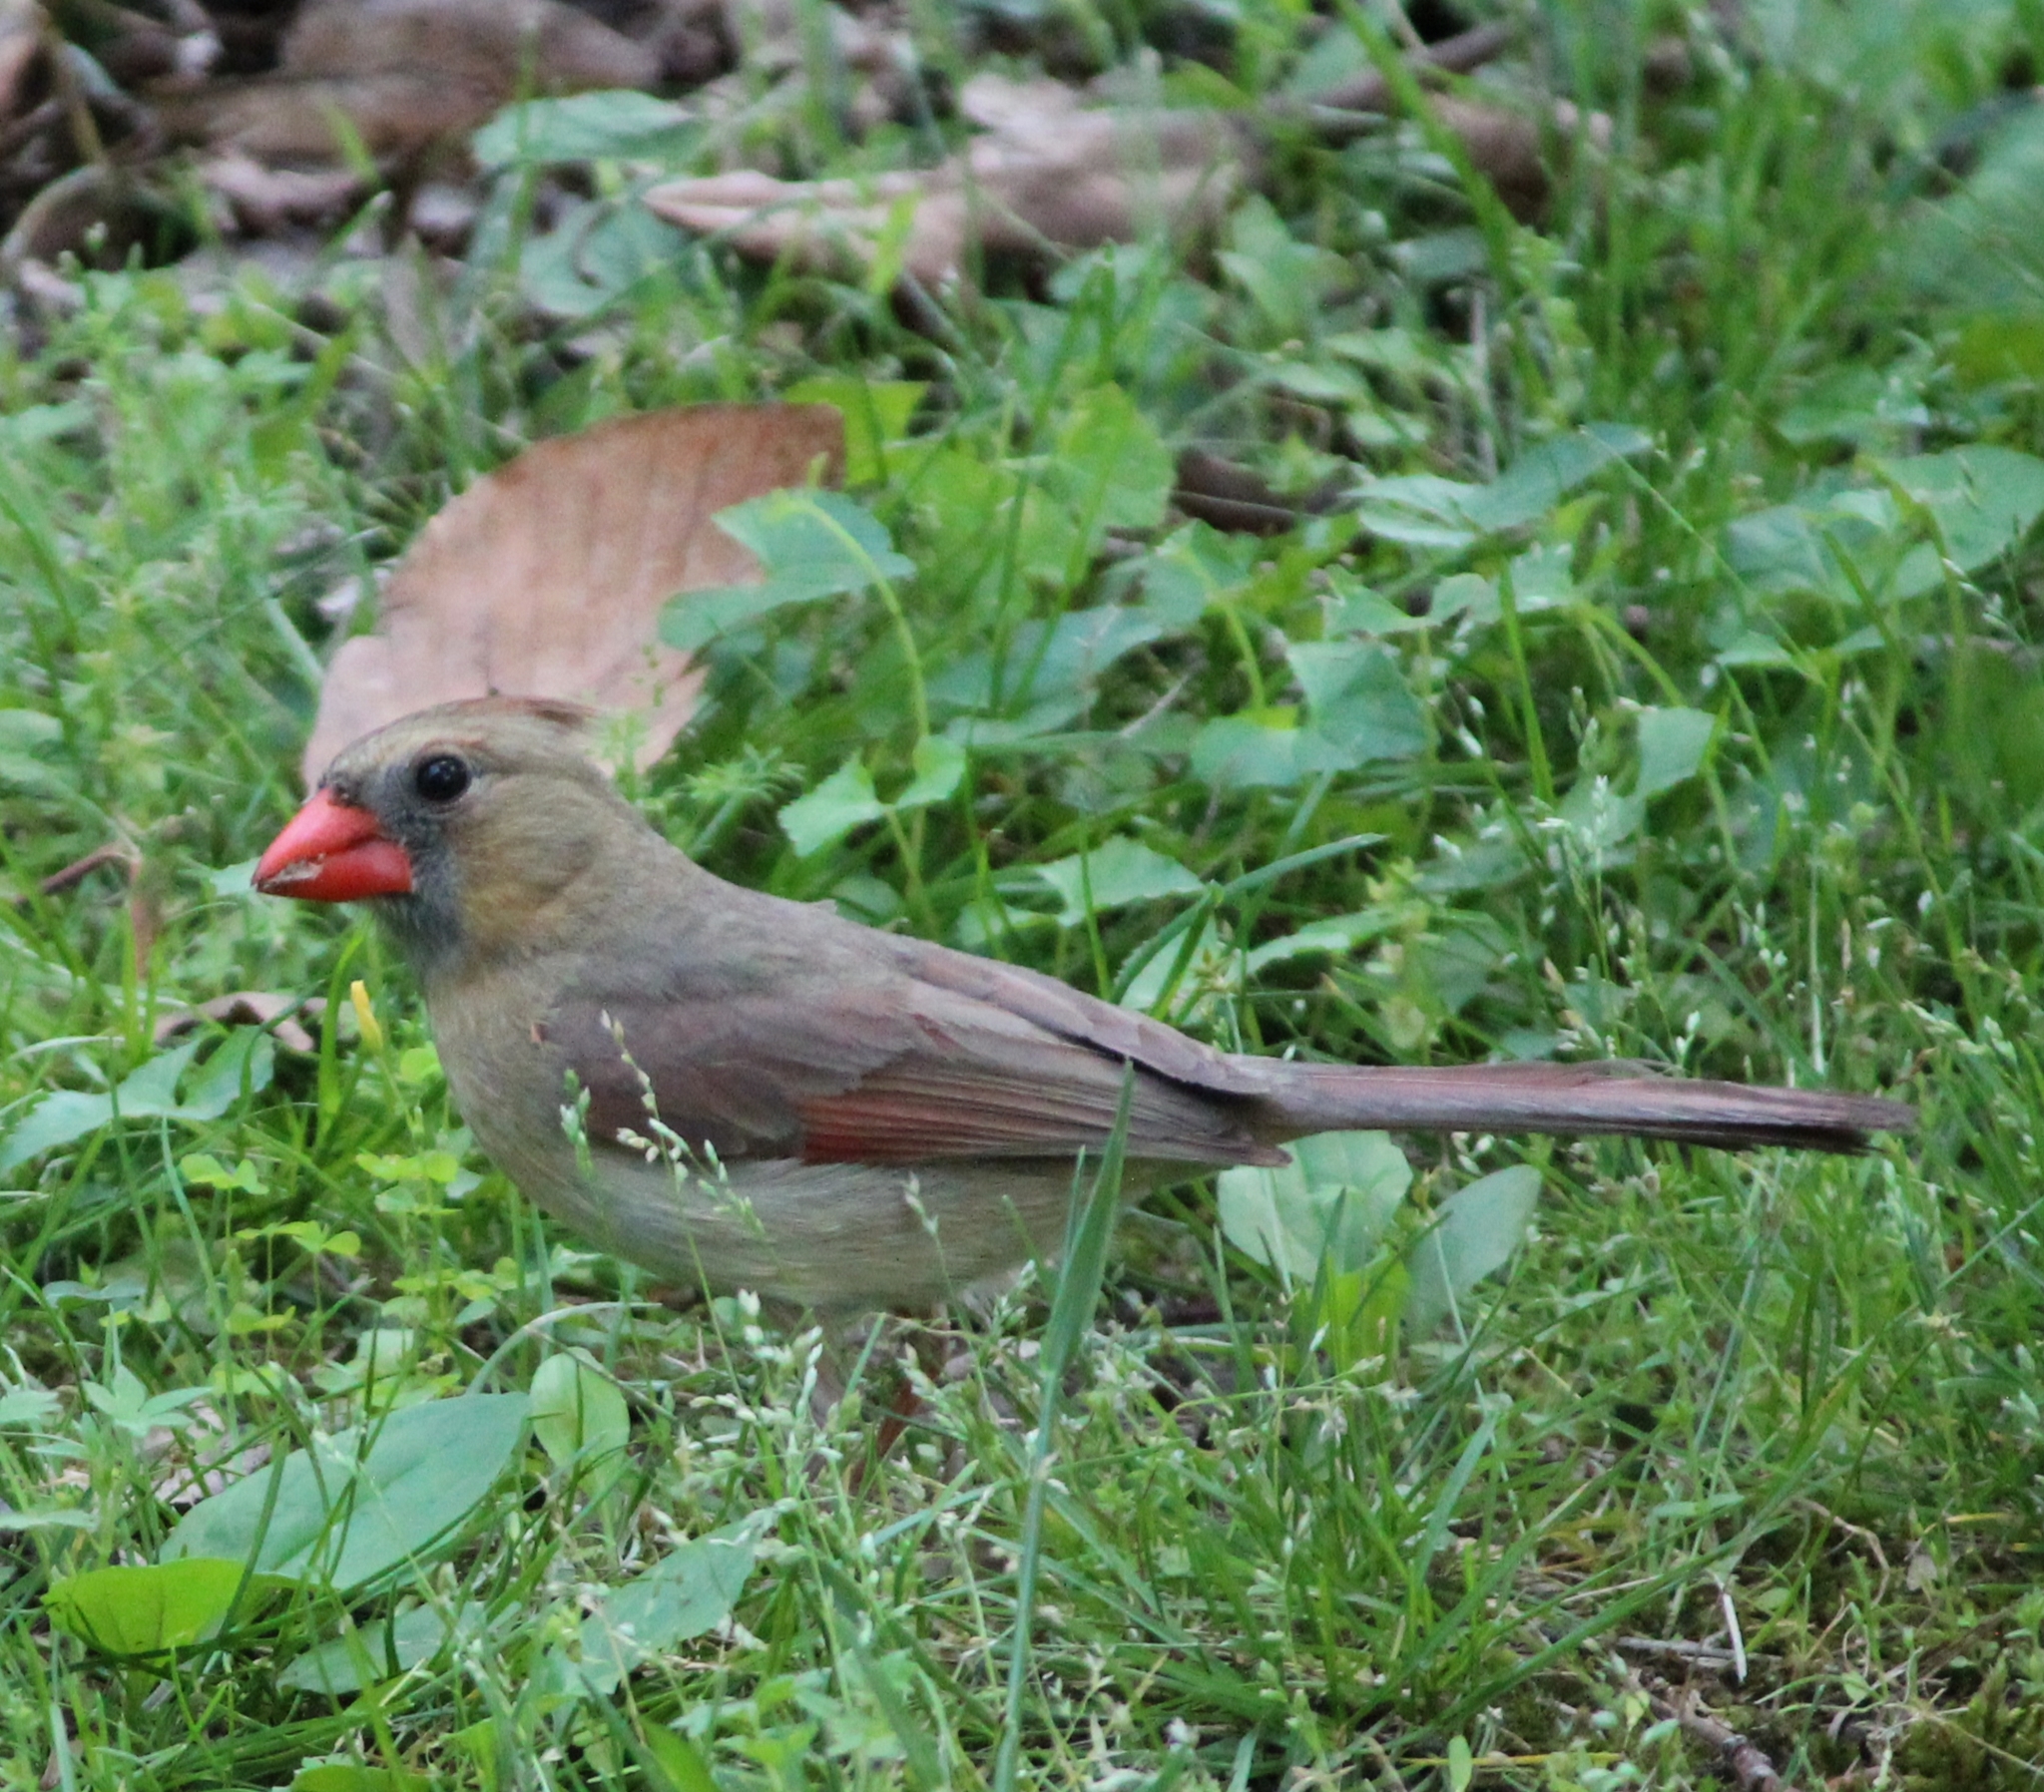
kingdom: Animalia
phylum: Chordata
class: Aves
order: Passeriformes
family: Cardinalidae
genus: Cardinalis
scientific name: Cardinalis cardinalis
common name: Northern cardinal
